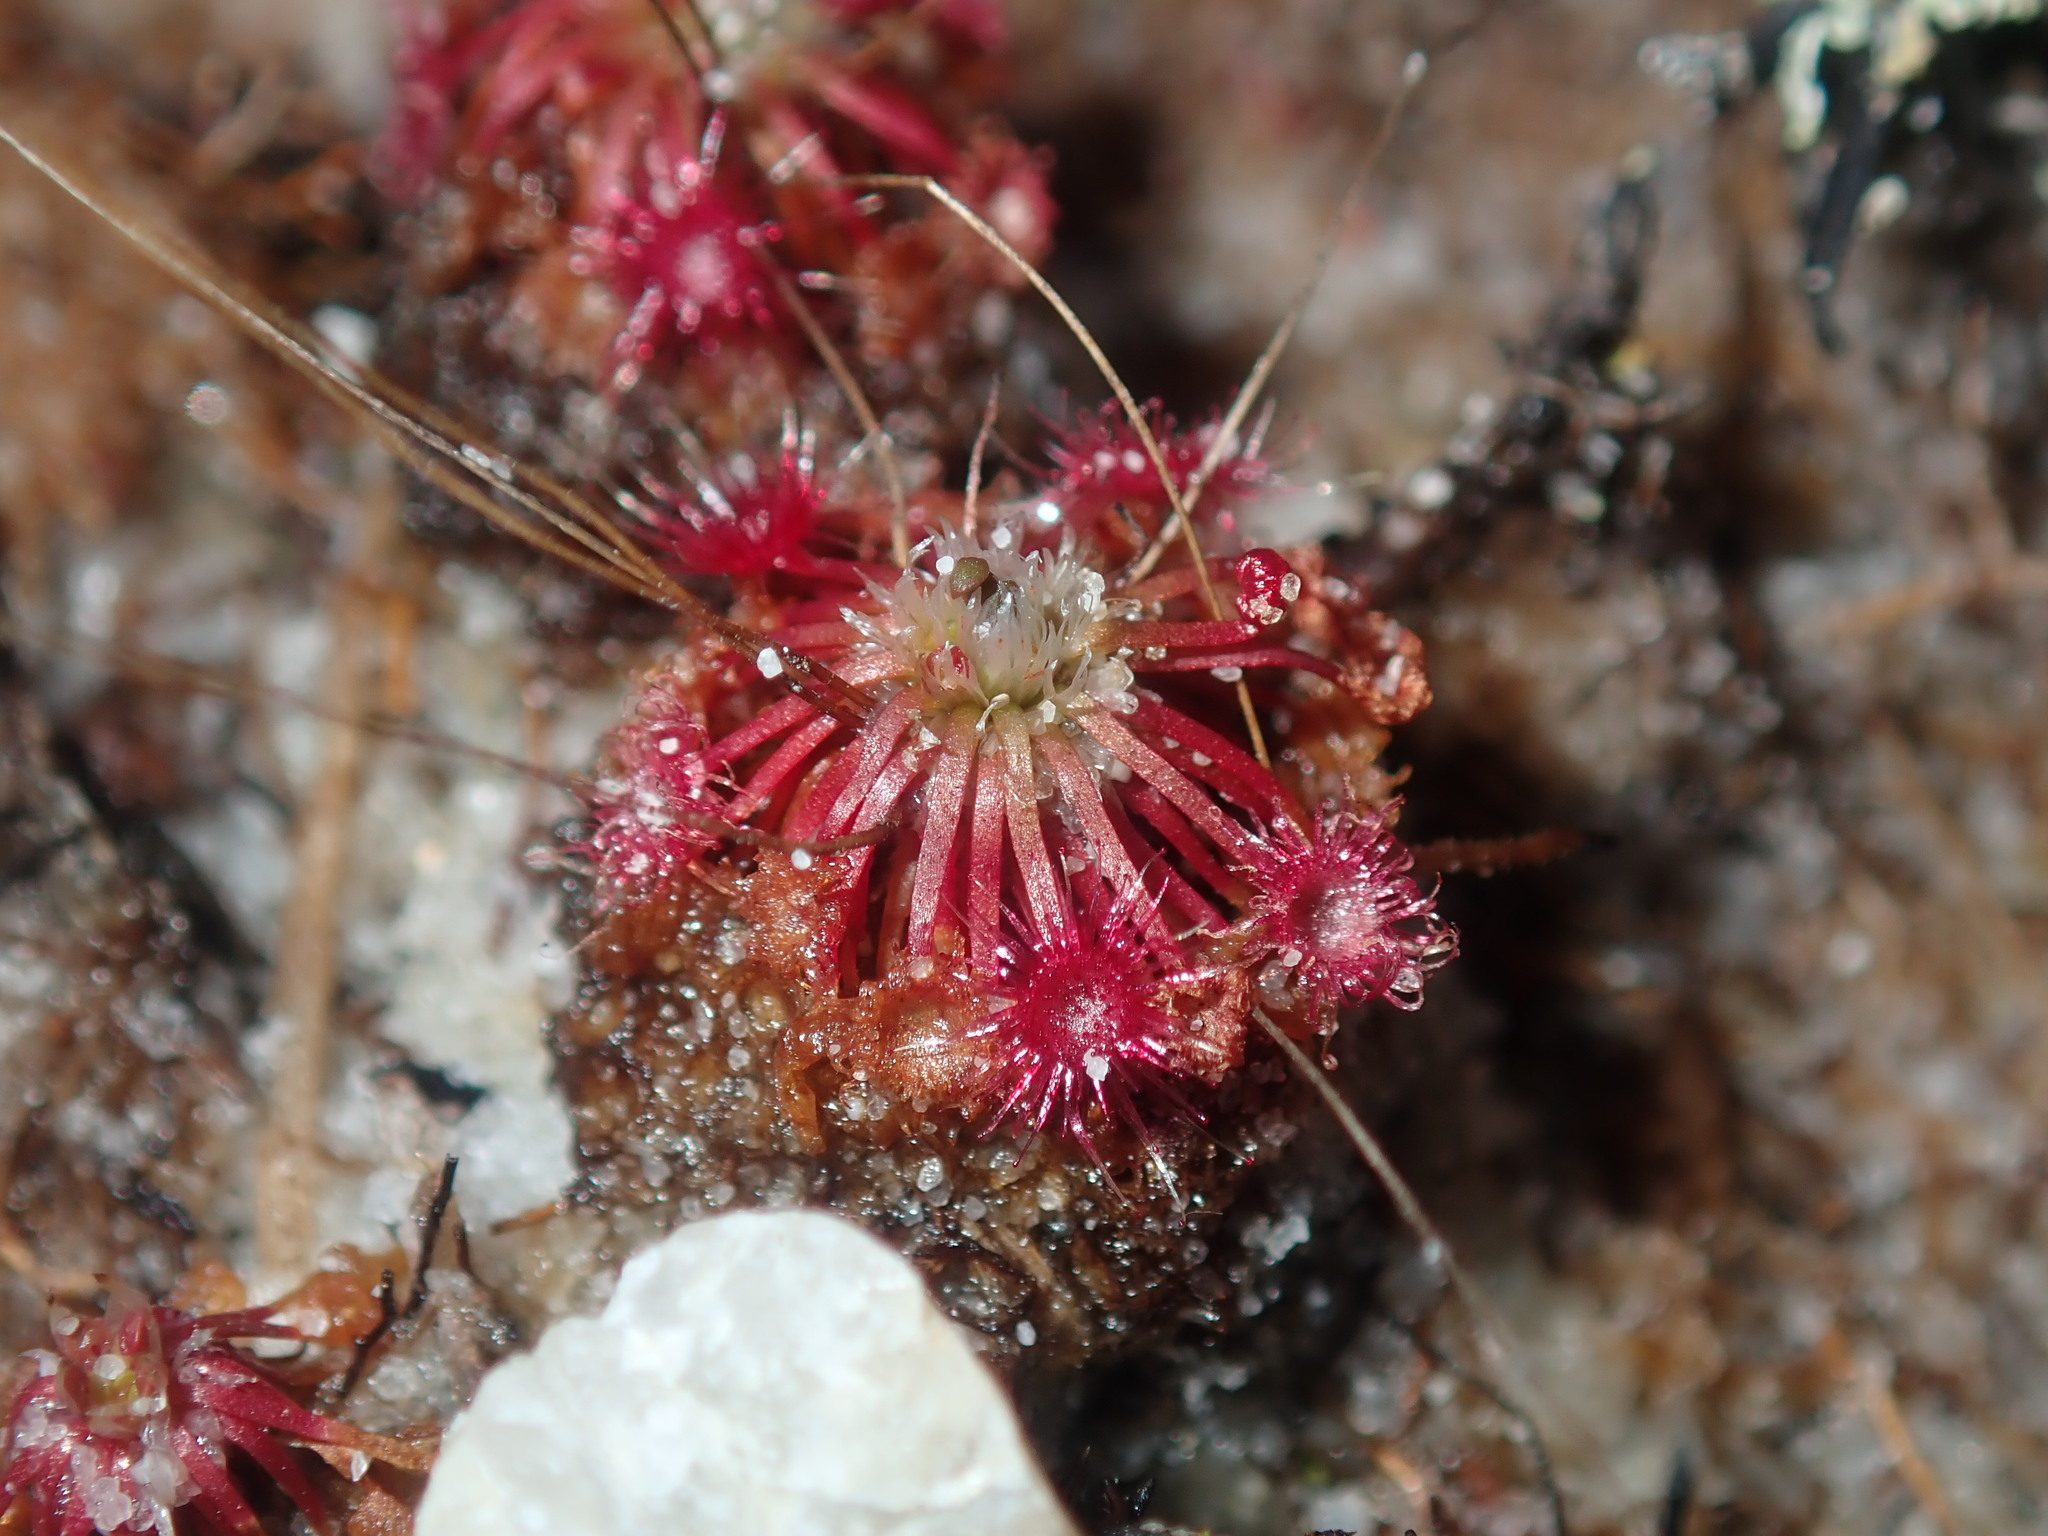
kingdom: Plantae
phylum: Tracheophyta
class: Magnoliopsida
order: Caryophyllales
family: Droseraceae
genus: Drosera
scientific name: Drosera pygmaea
